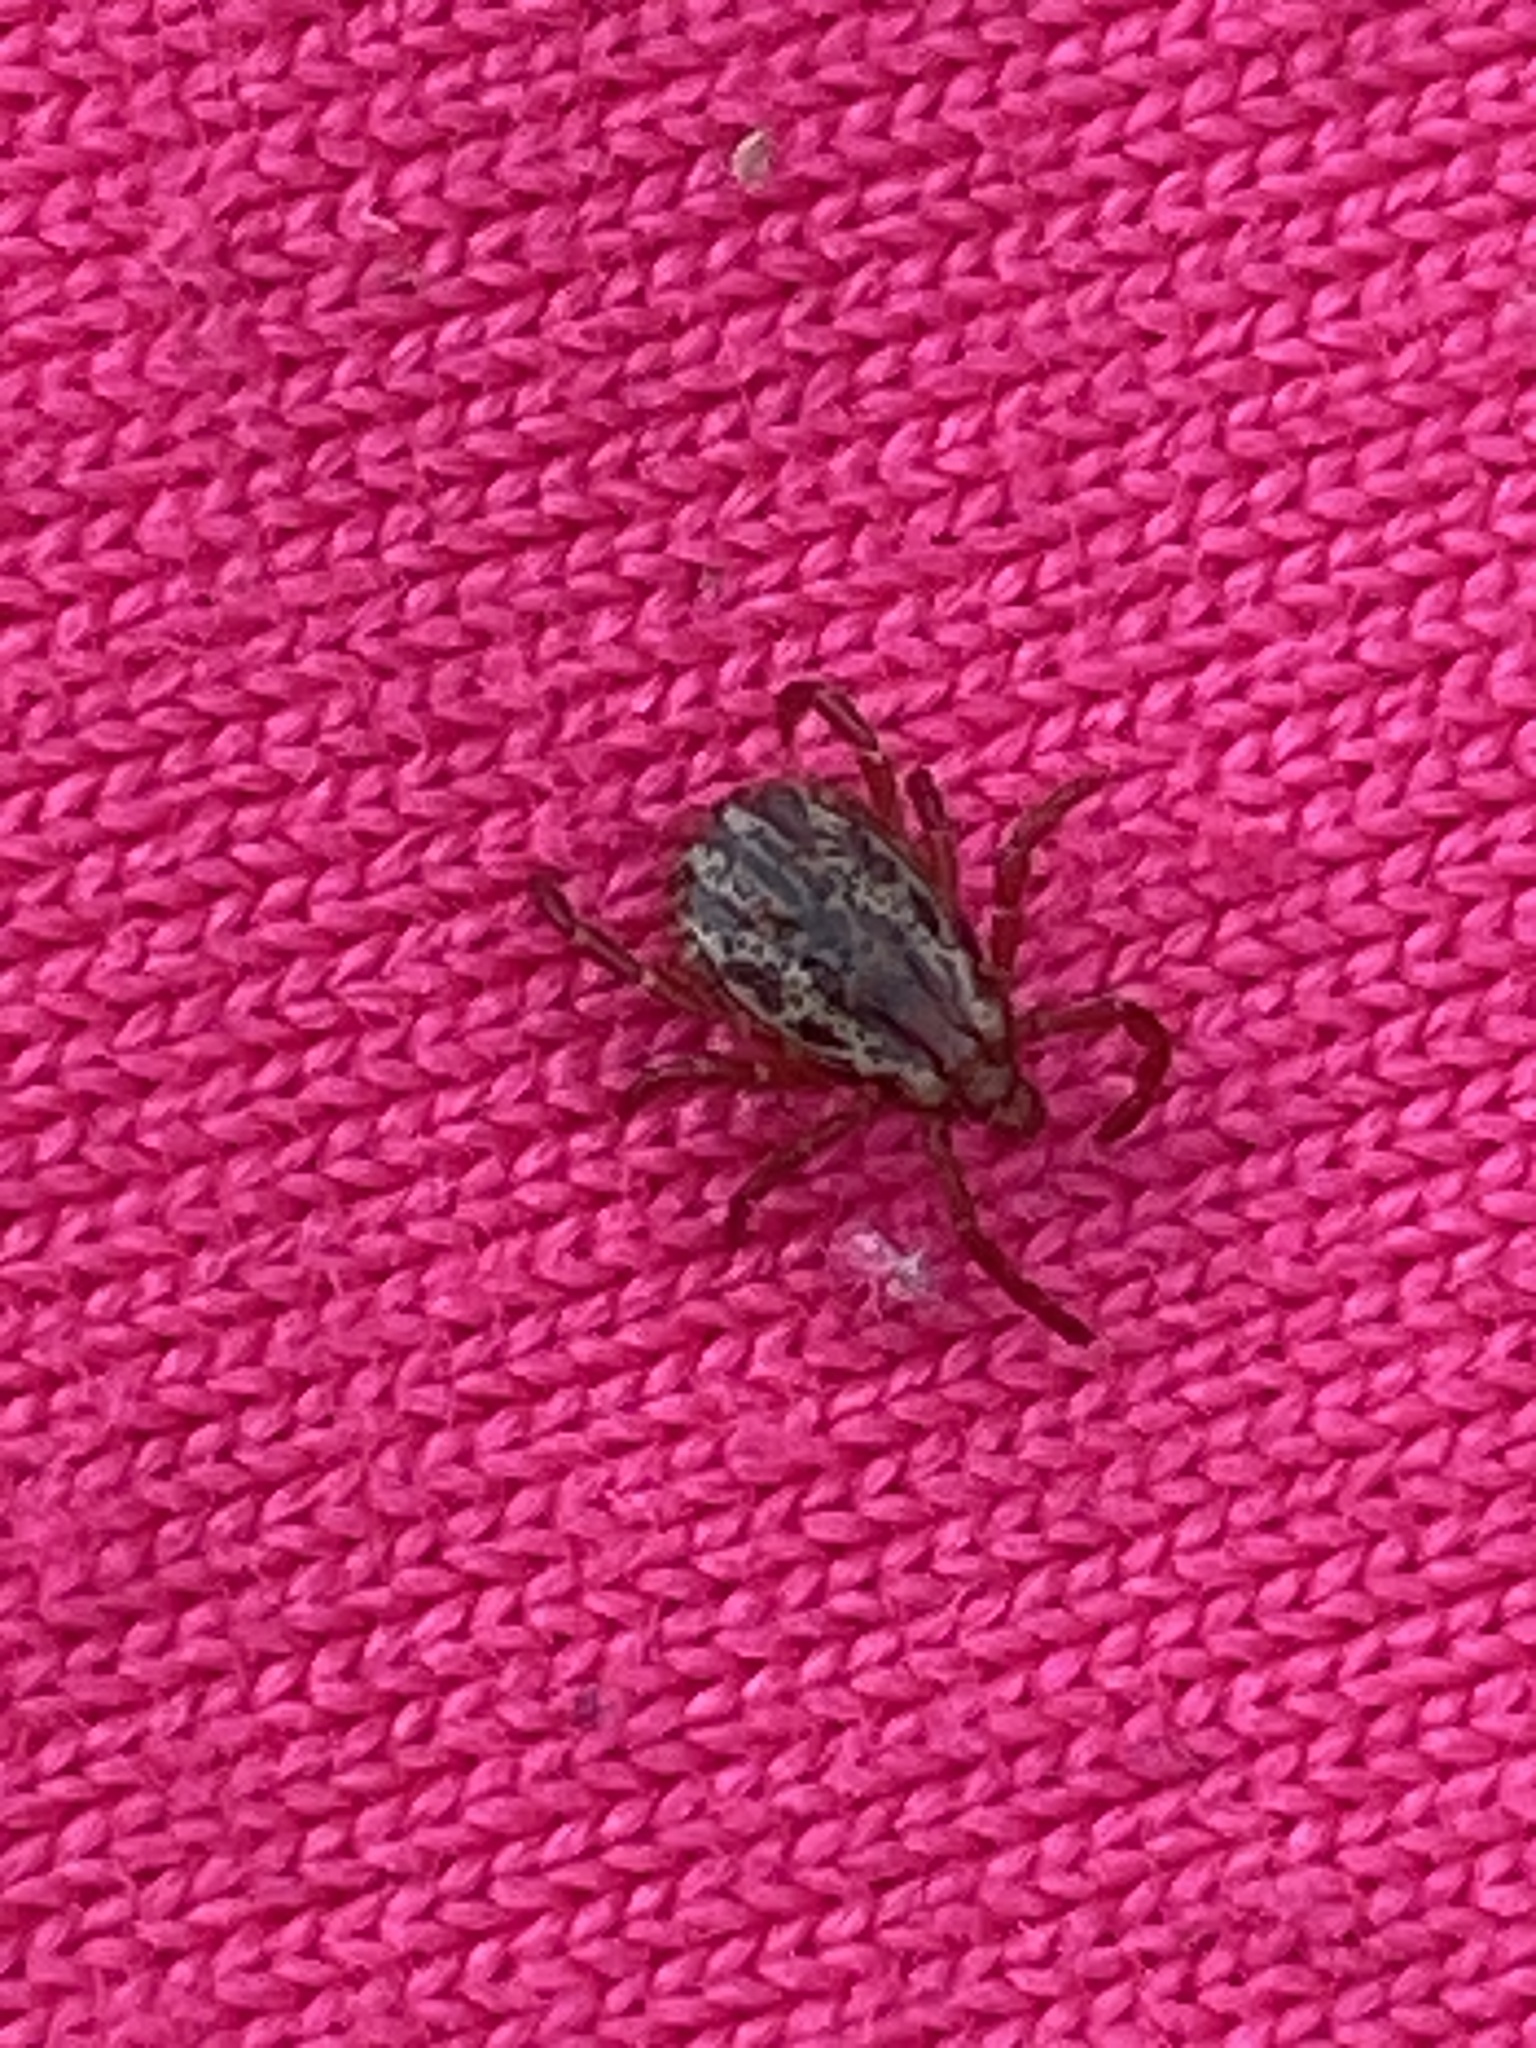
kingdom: Animalia
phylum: Arthropoda
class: Arachnida
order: Ixodida
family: Ixodidae
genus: Dermacentor
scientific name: Dermacentor variabilis
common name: American dog tick
